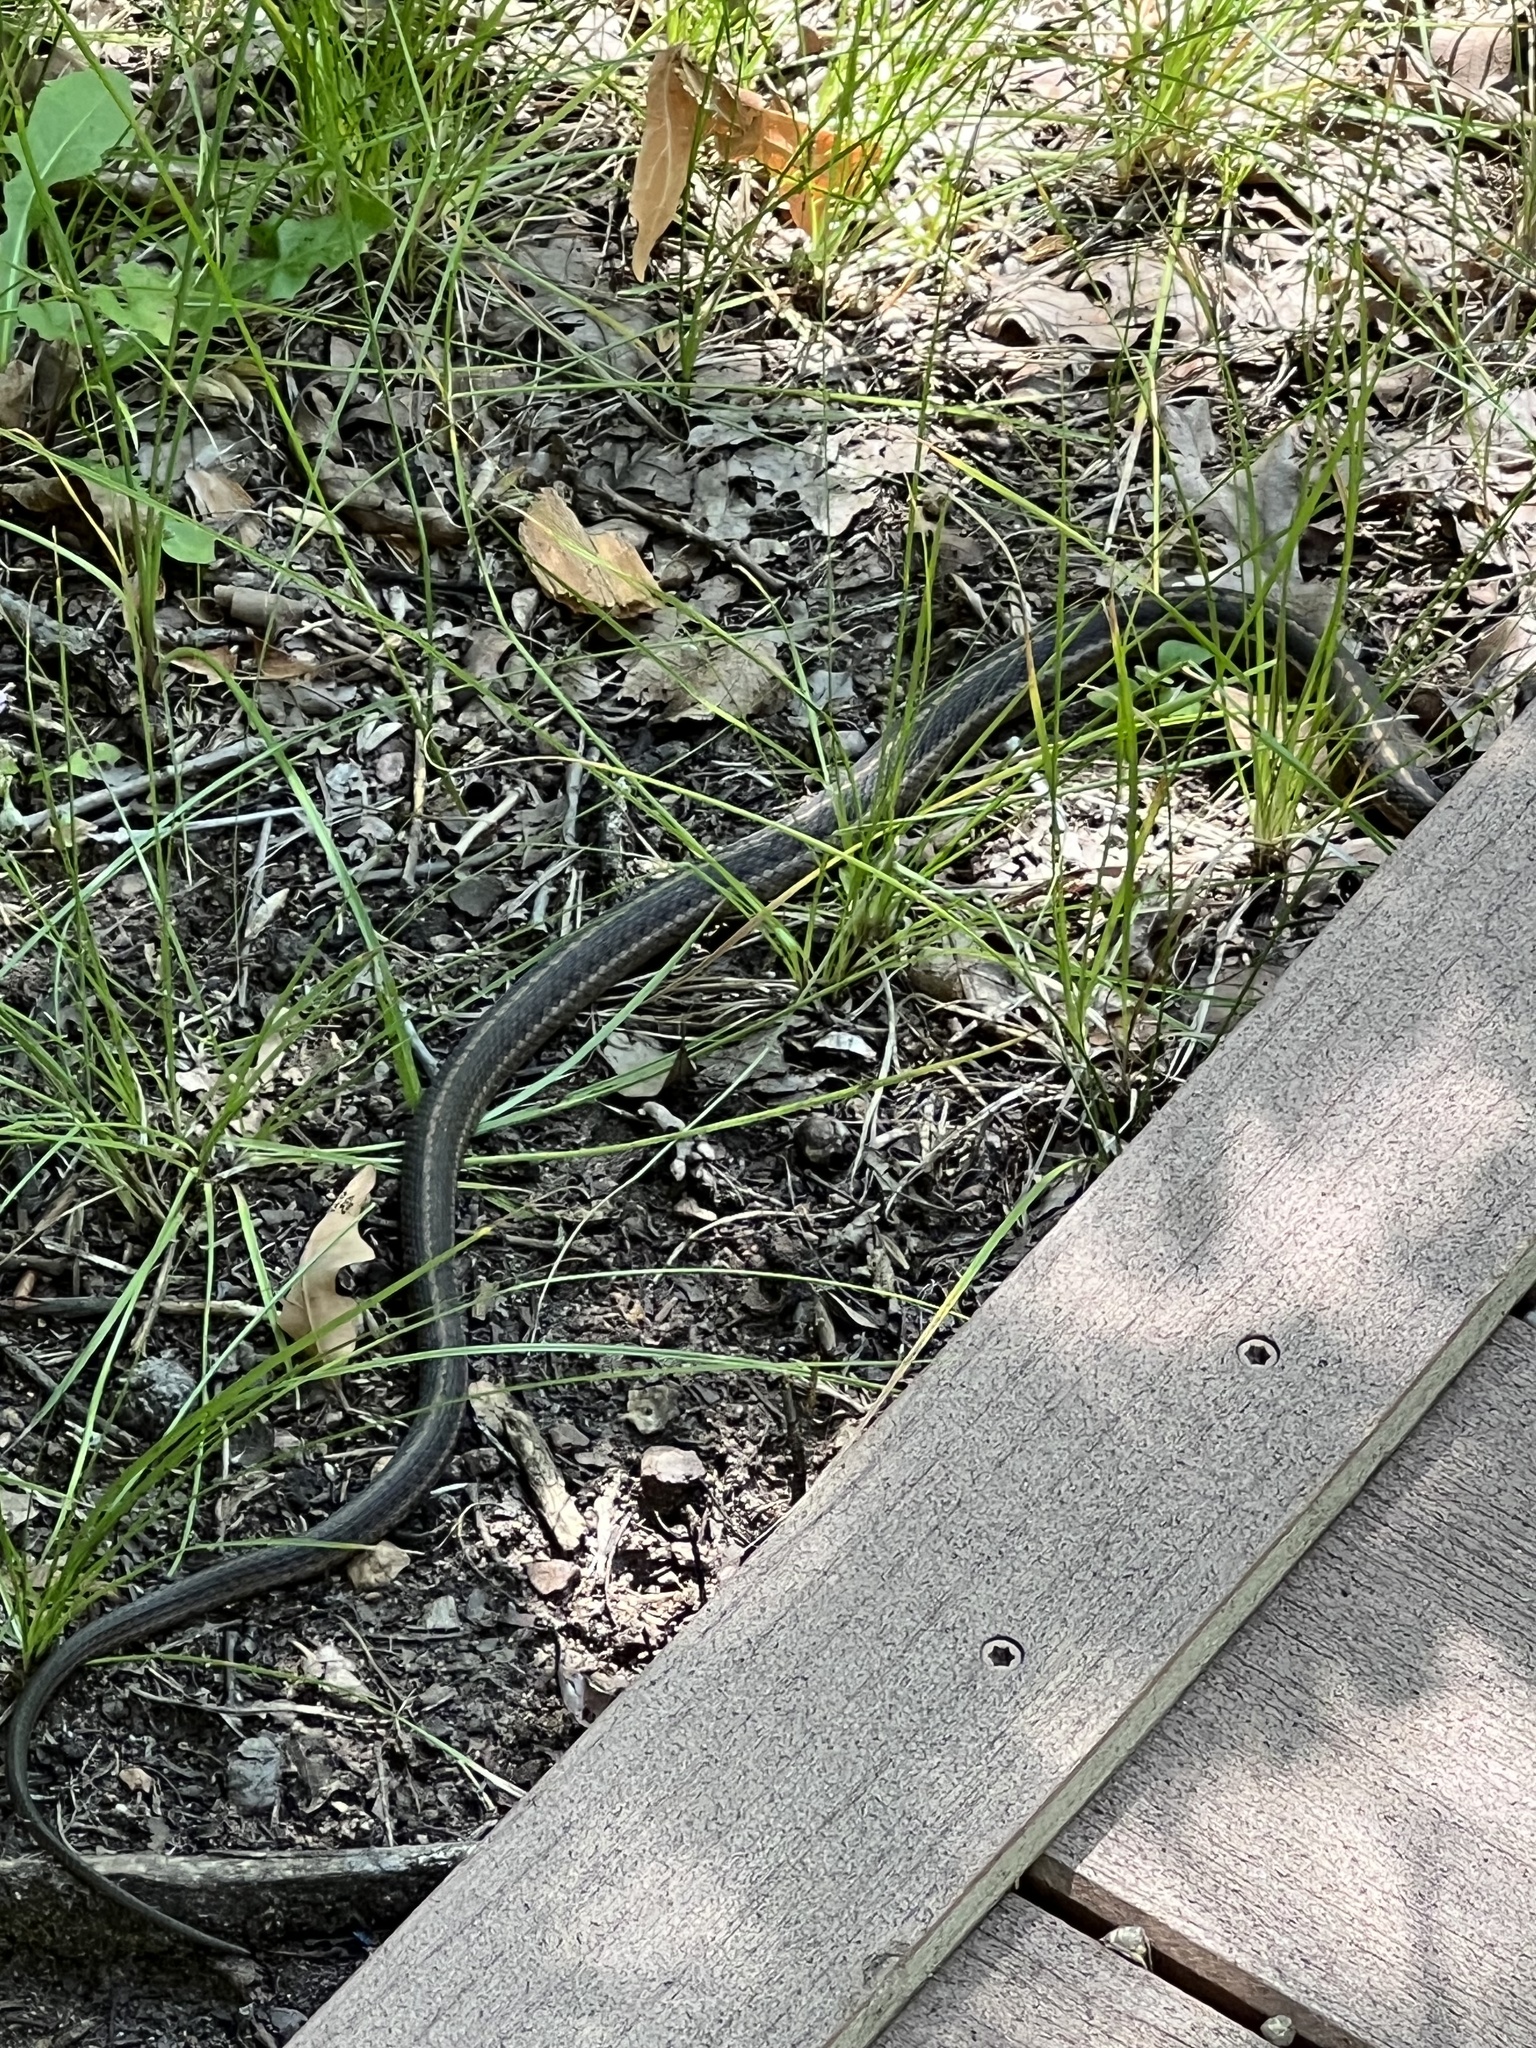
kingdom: Animalia
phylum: Chordata
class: Squamata
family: Colubridae
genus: Thamnophis
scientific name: Thamnophis elegans
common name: Western terrestrial garter snake
